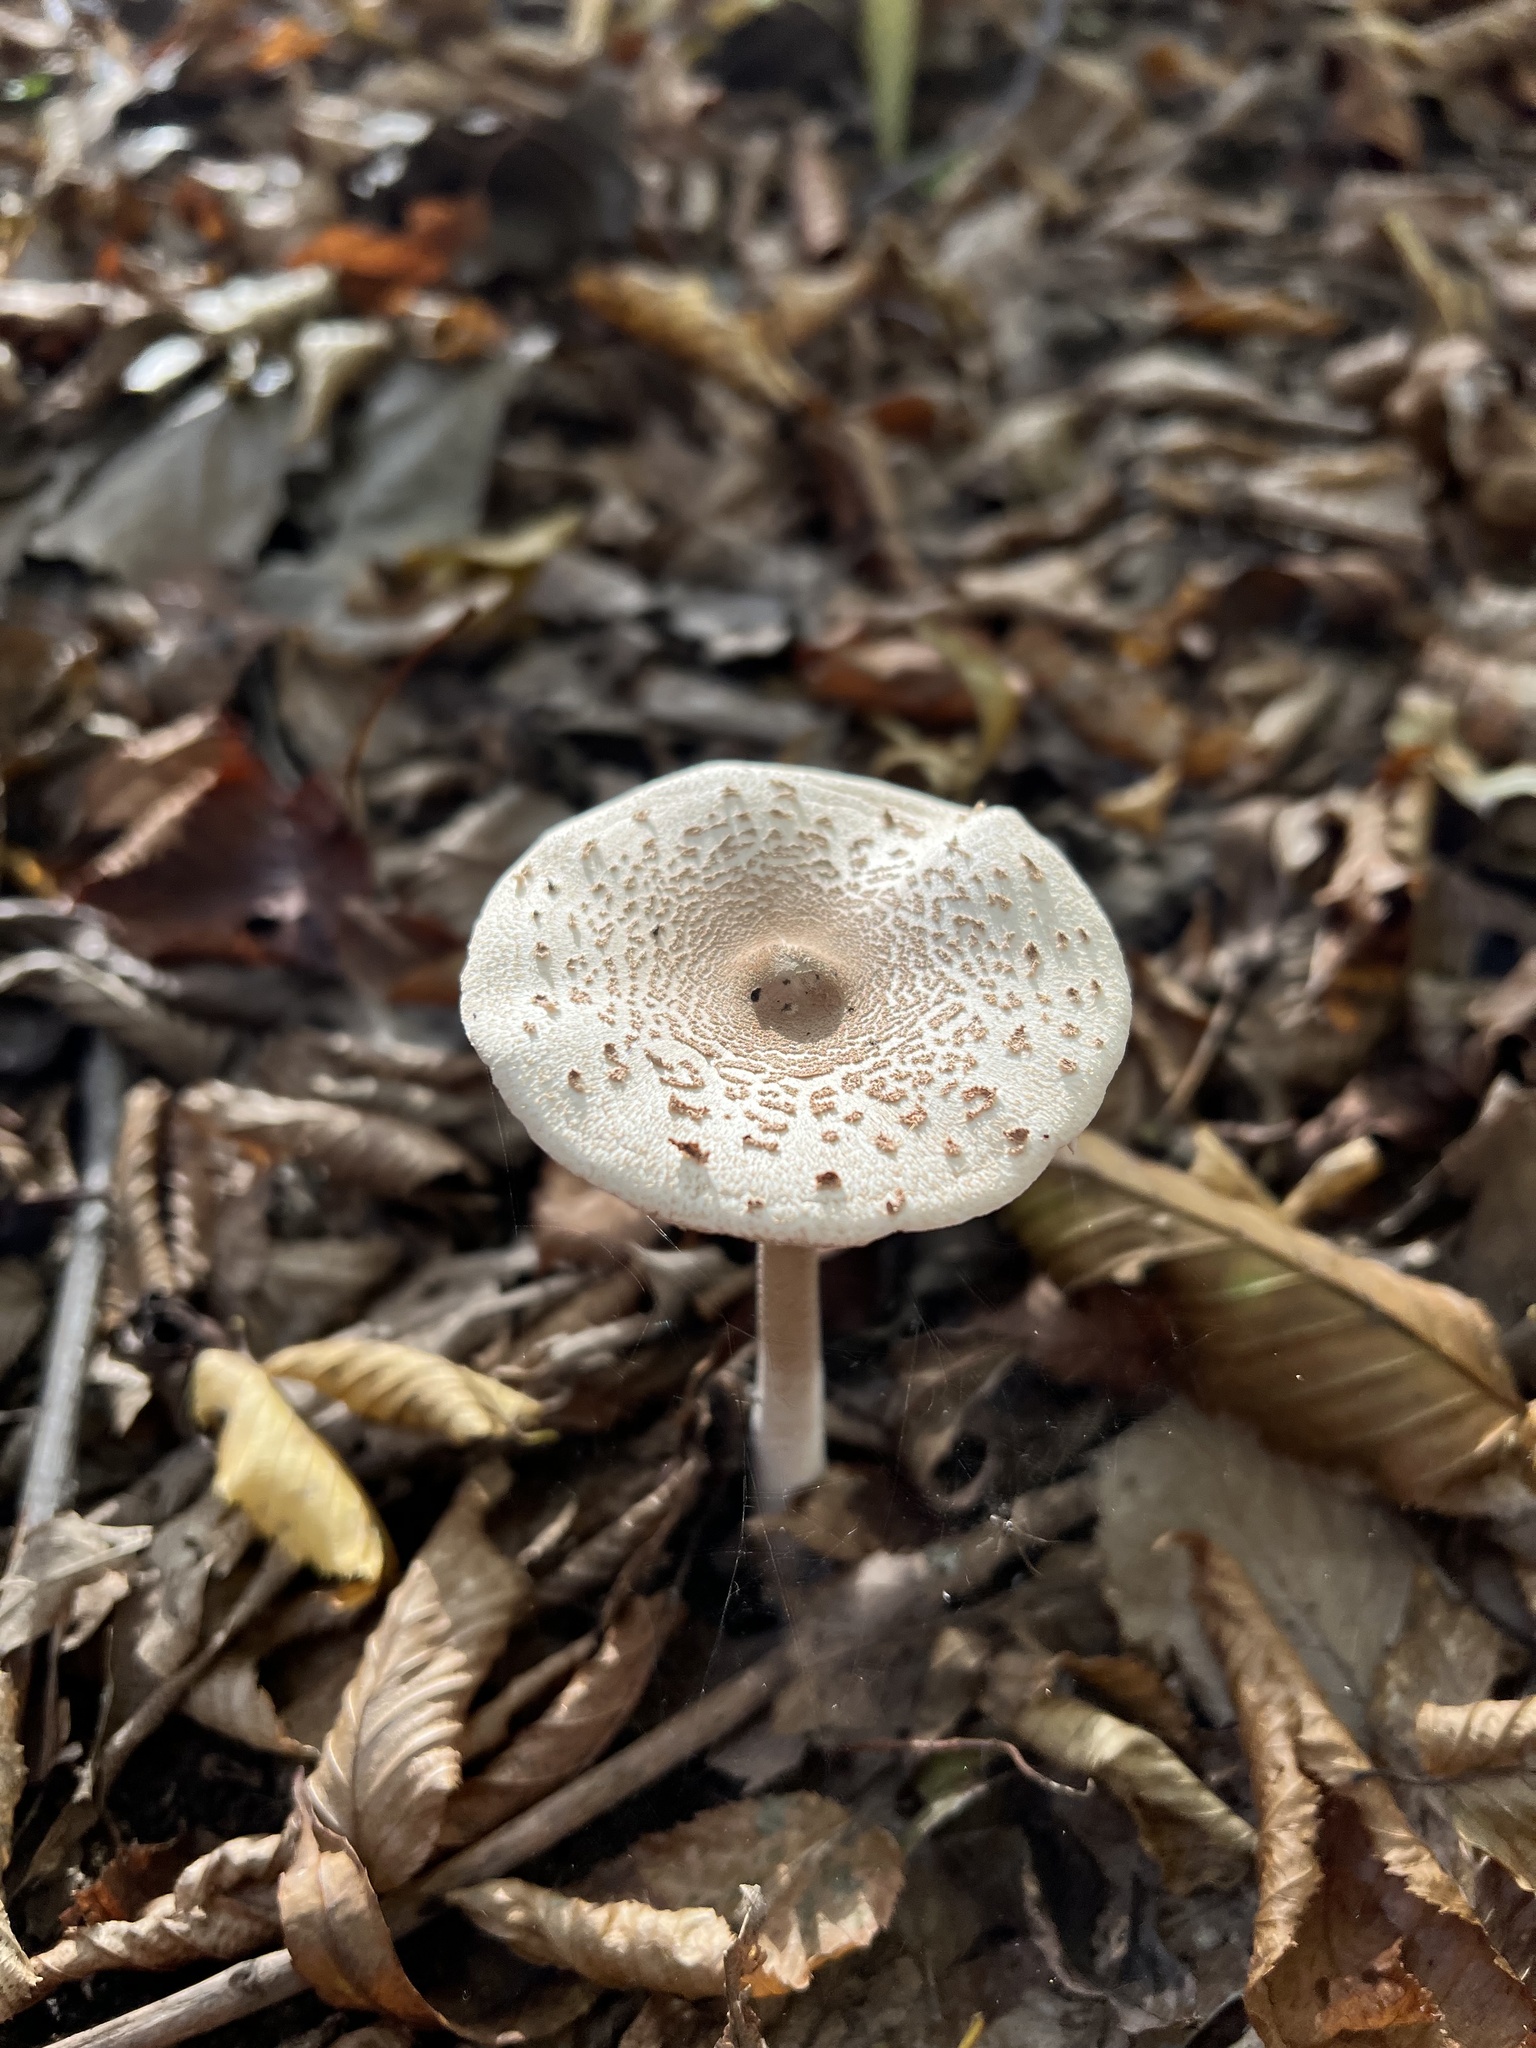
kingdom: Fungi
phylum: Basidiomycota
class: Agaricomycetes
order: Agaricales
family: Agaricaceae
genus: Macrolepiota
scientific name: Macrolepiota procera
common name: Parasol
